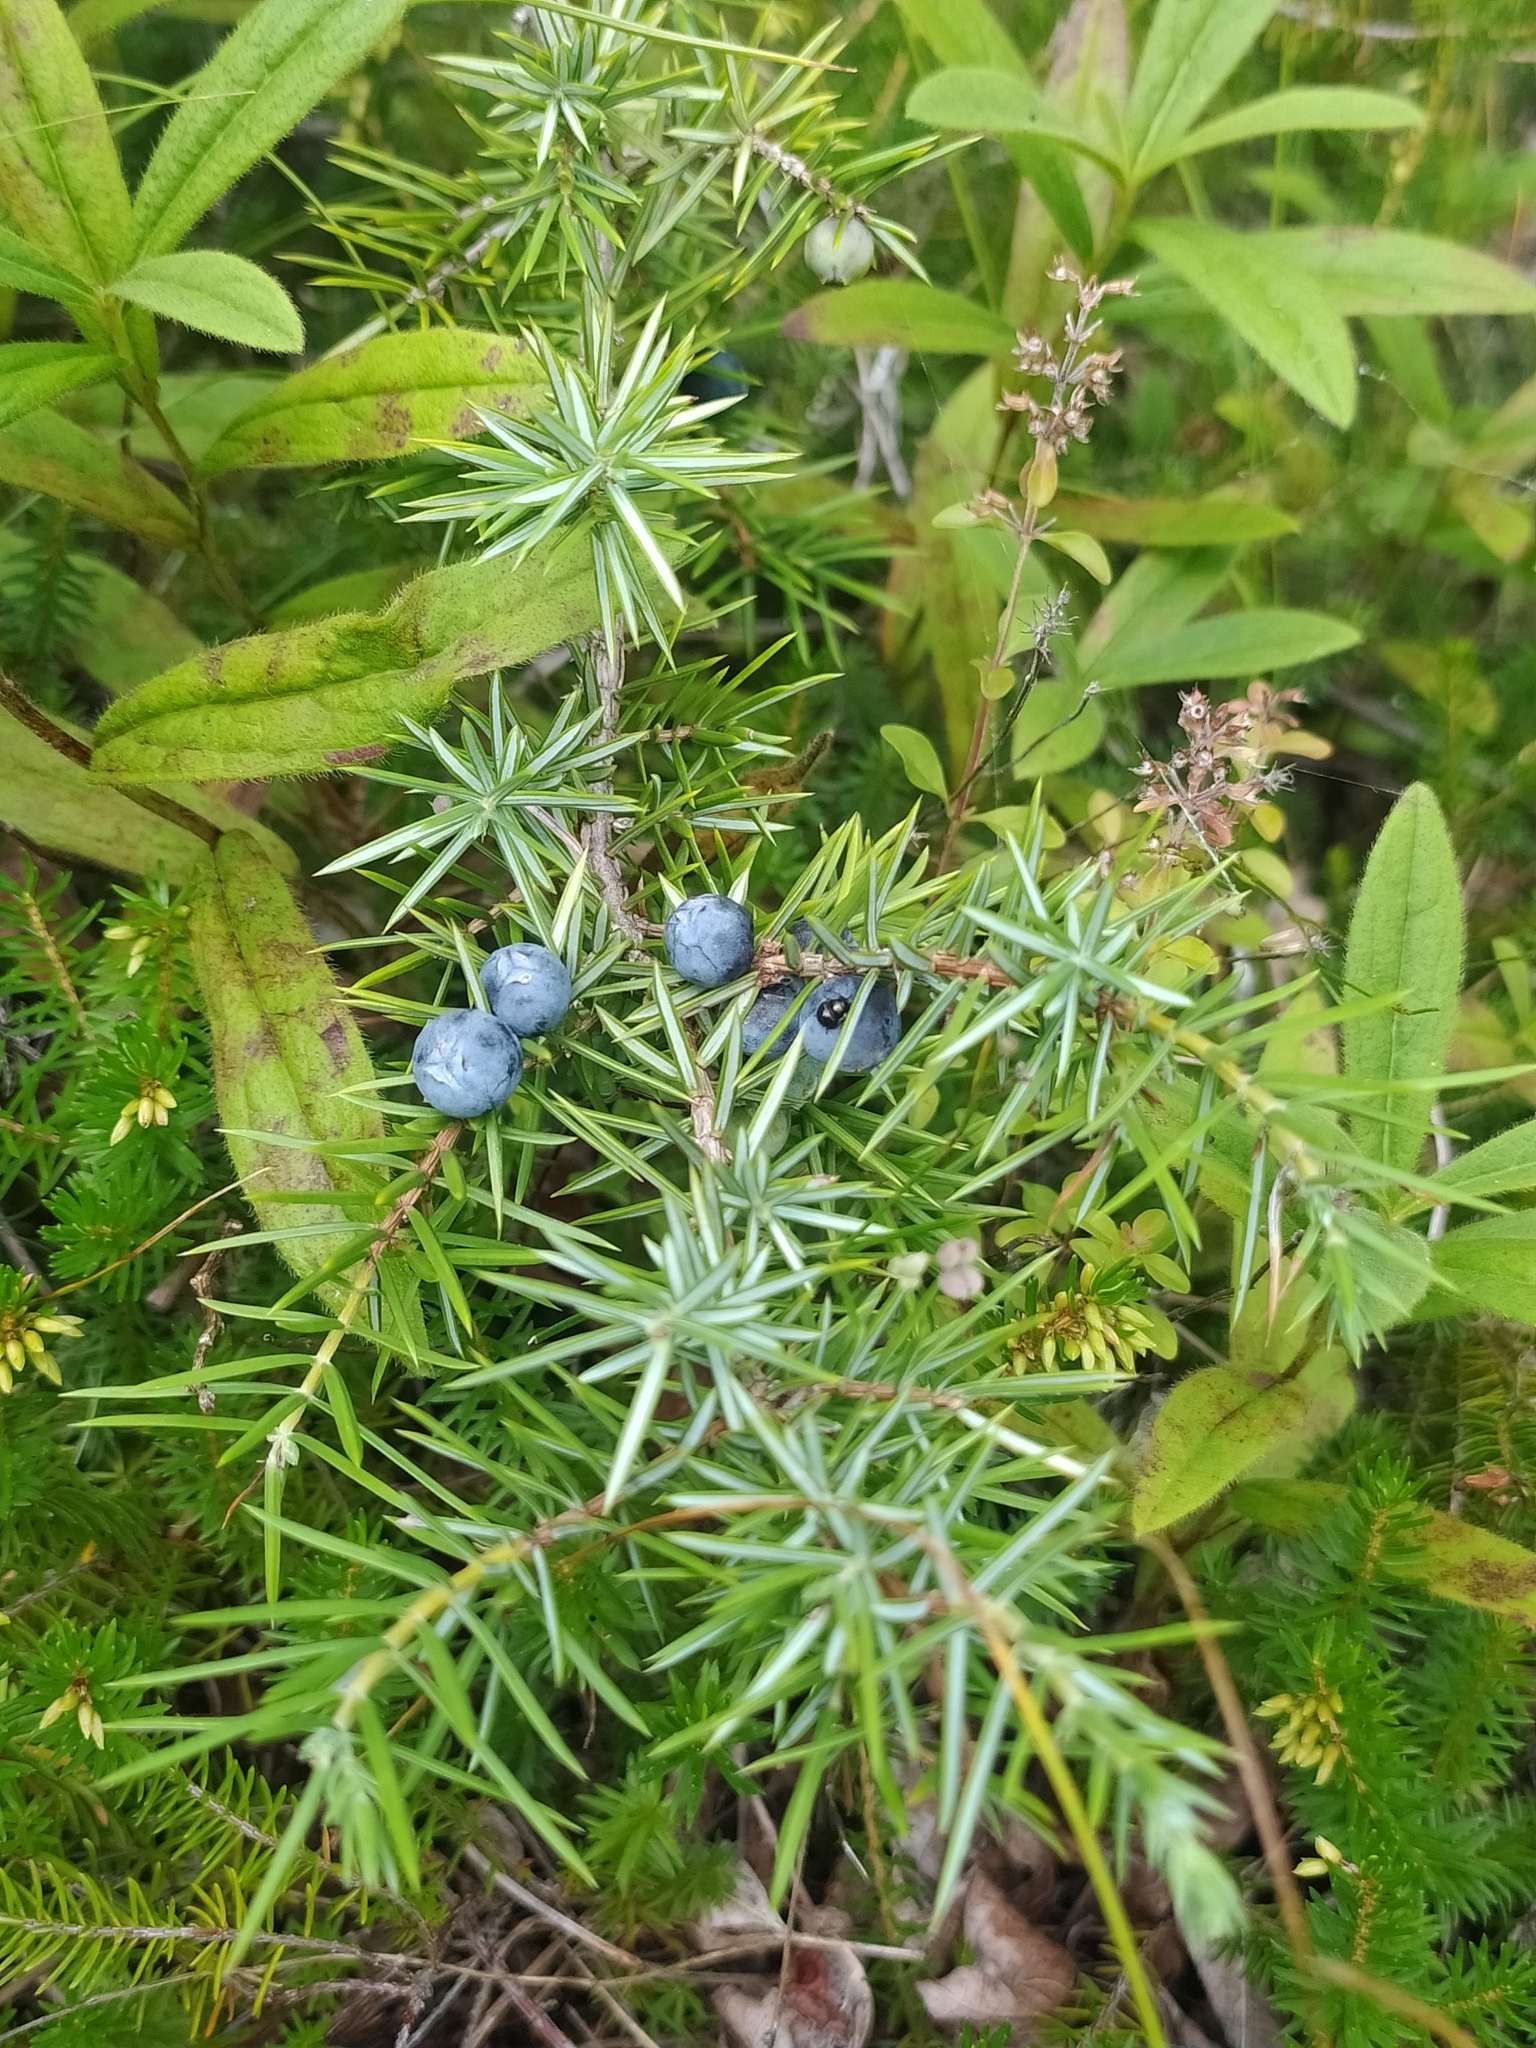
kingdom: Plantae
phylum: Tracheophyta
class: Pinopsida
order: Pinales
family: Cupressaceae
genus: Juniperus
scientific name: Juniperus communis
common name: Common juniper
